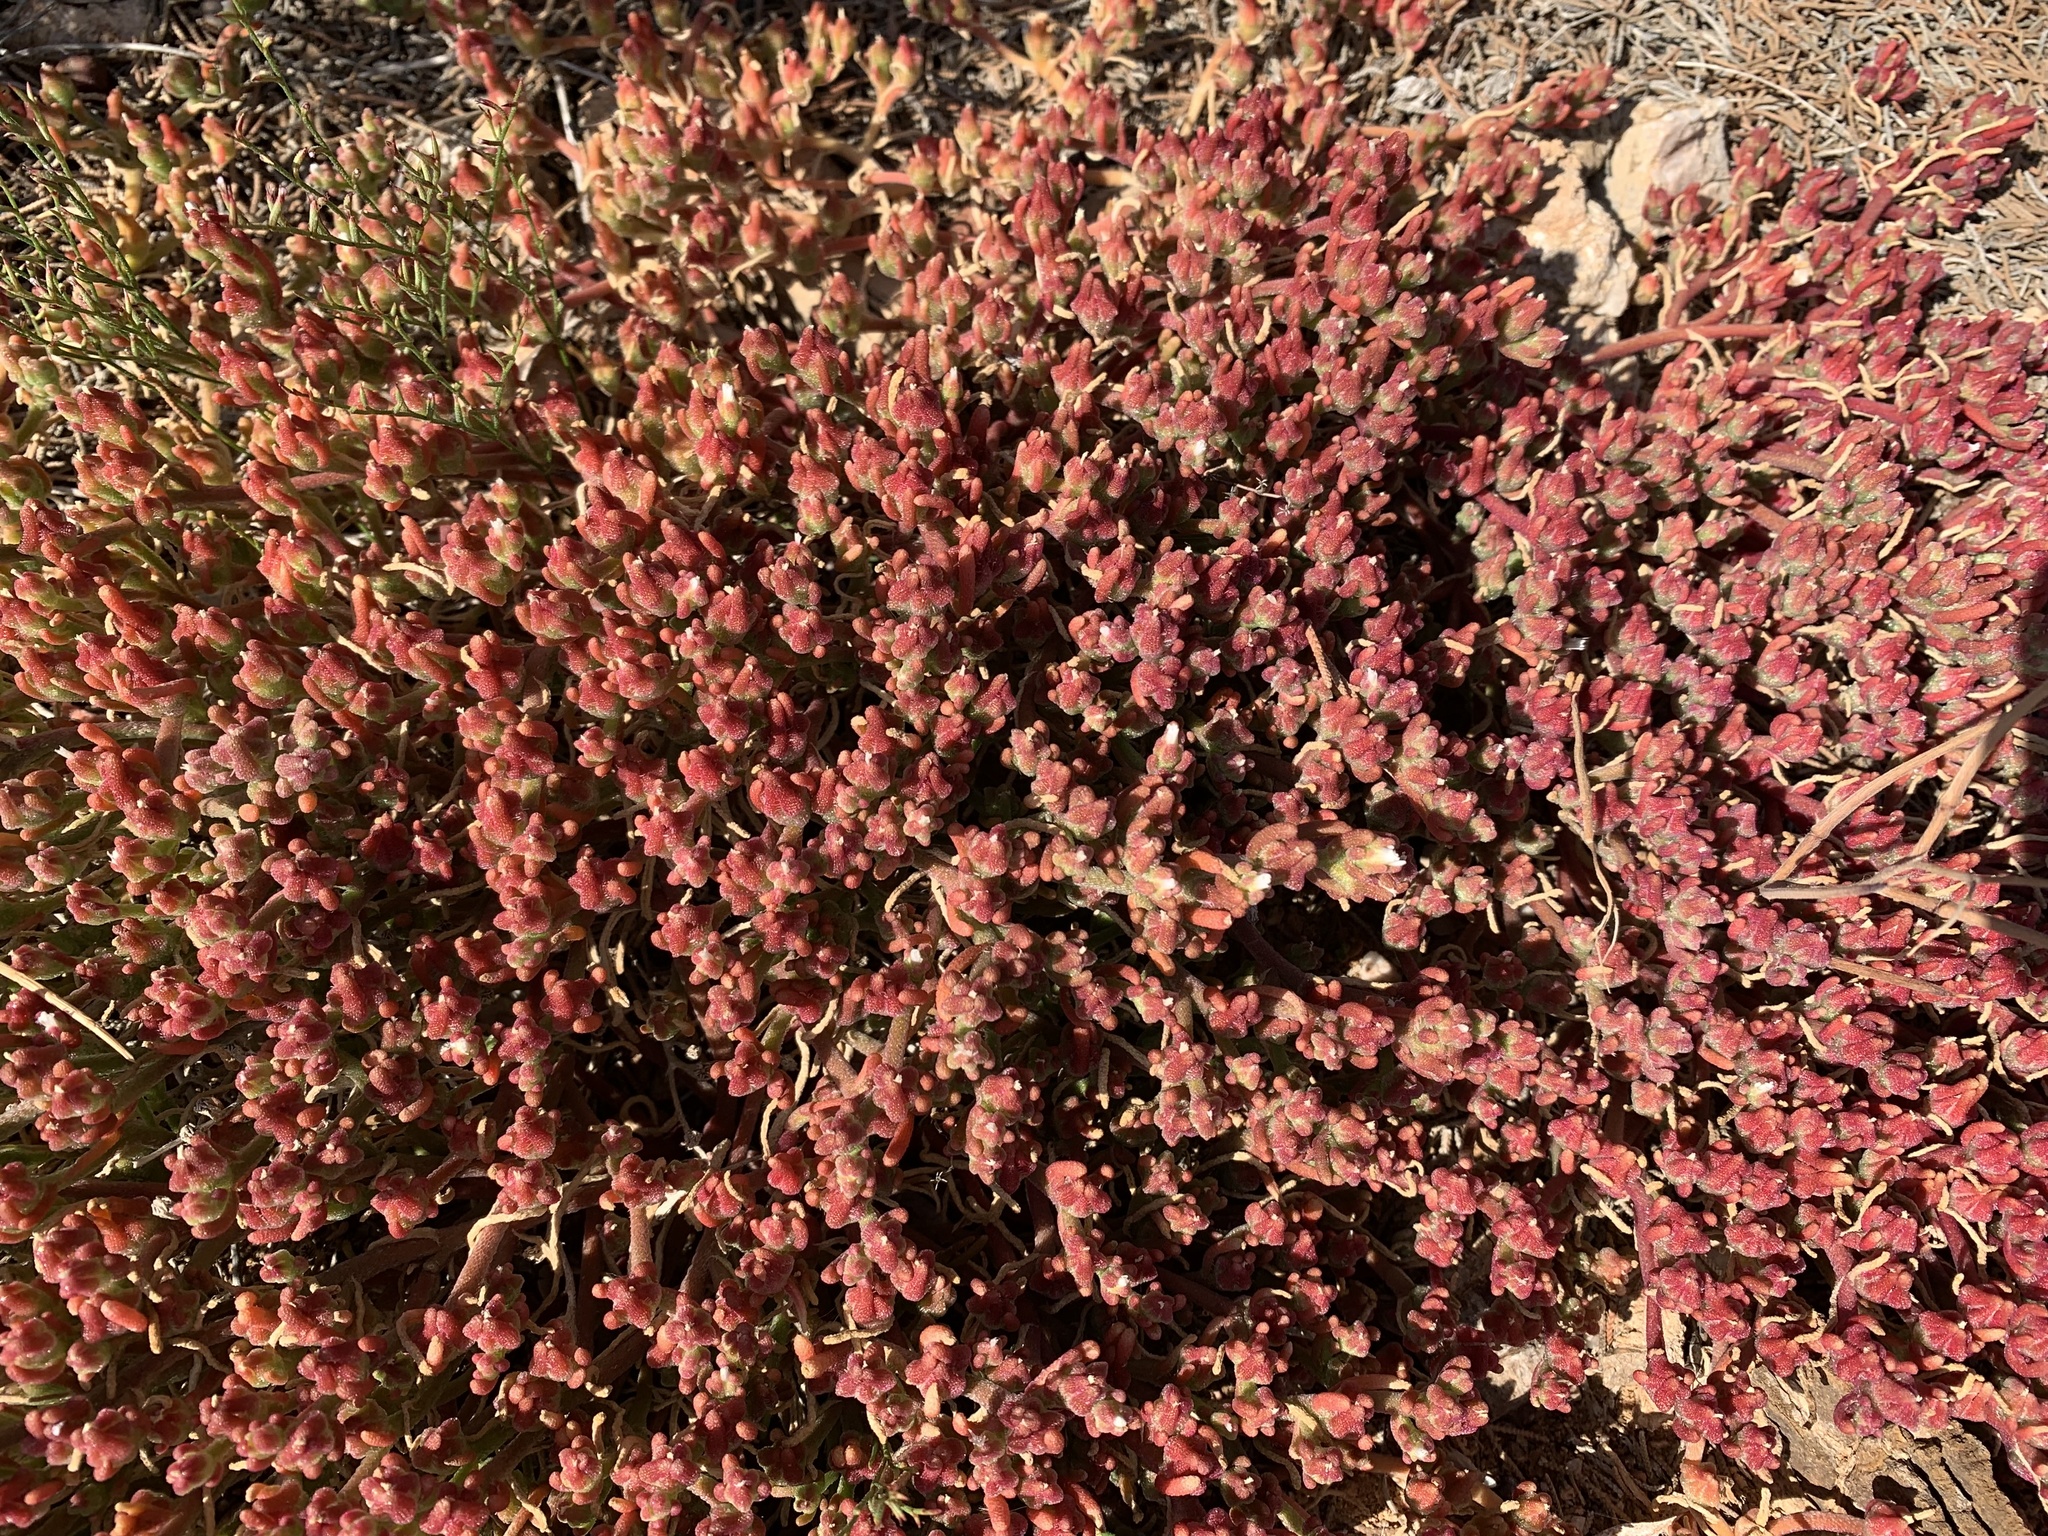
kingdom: Plantae
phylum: Tracheophyta
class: Magnoliopsida
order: Caryophyllales
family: Aizoaceae
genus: Mesembryanthemum
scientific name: Mesembryanthemum nodiflorum
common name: Slenderleaf iceplant
